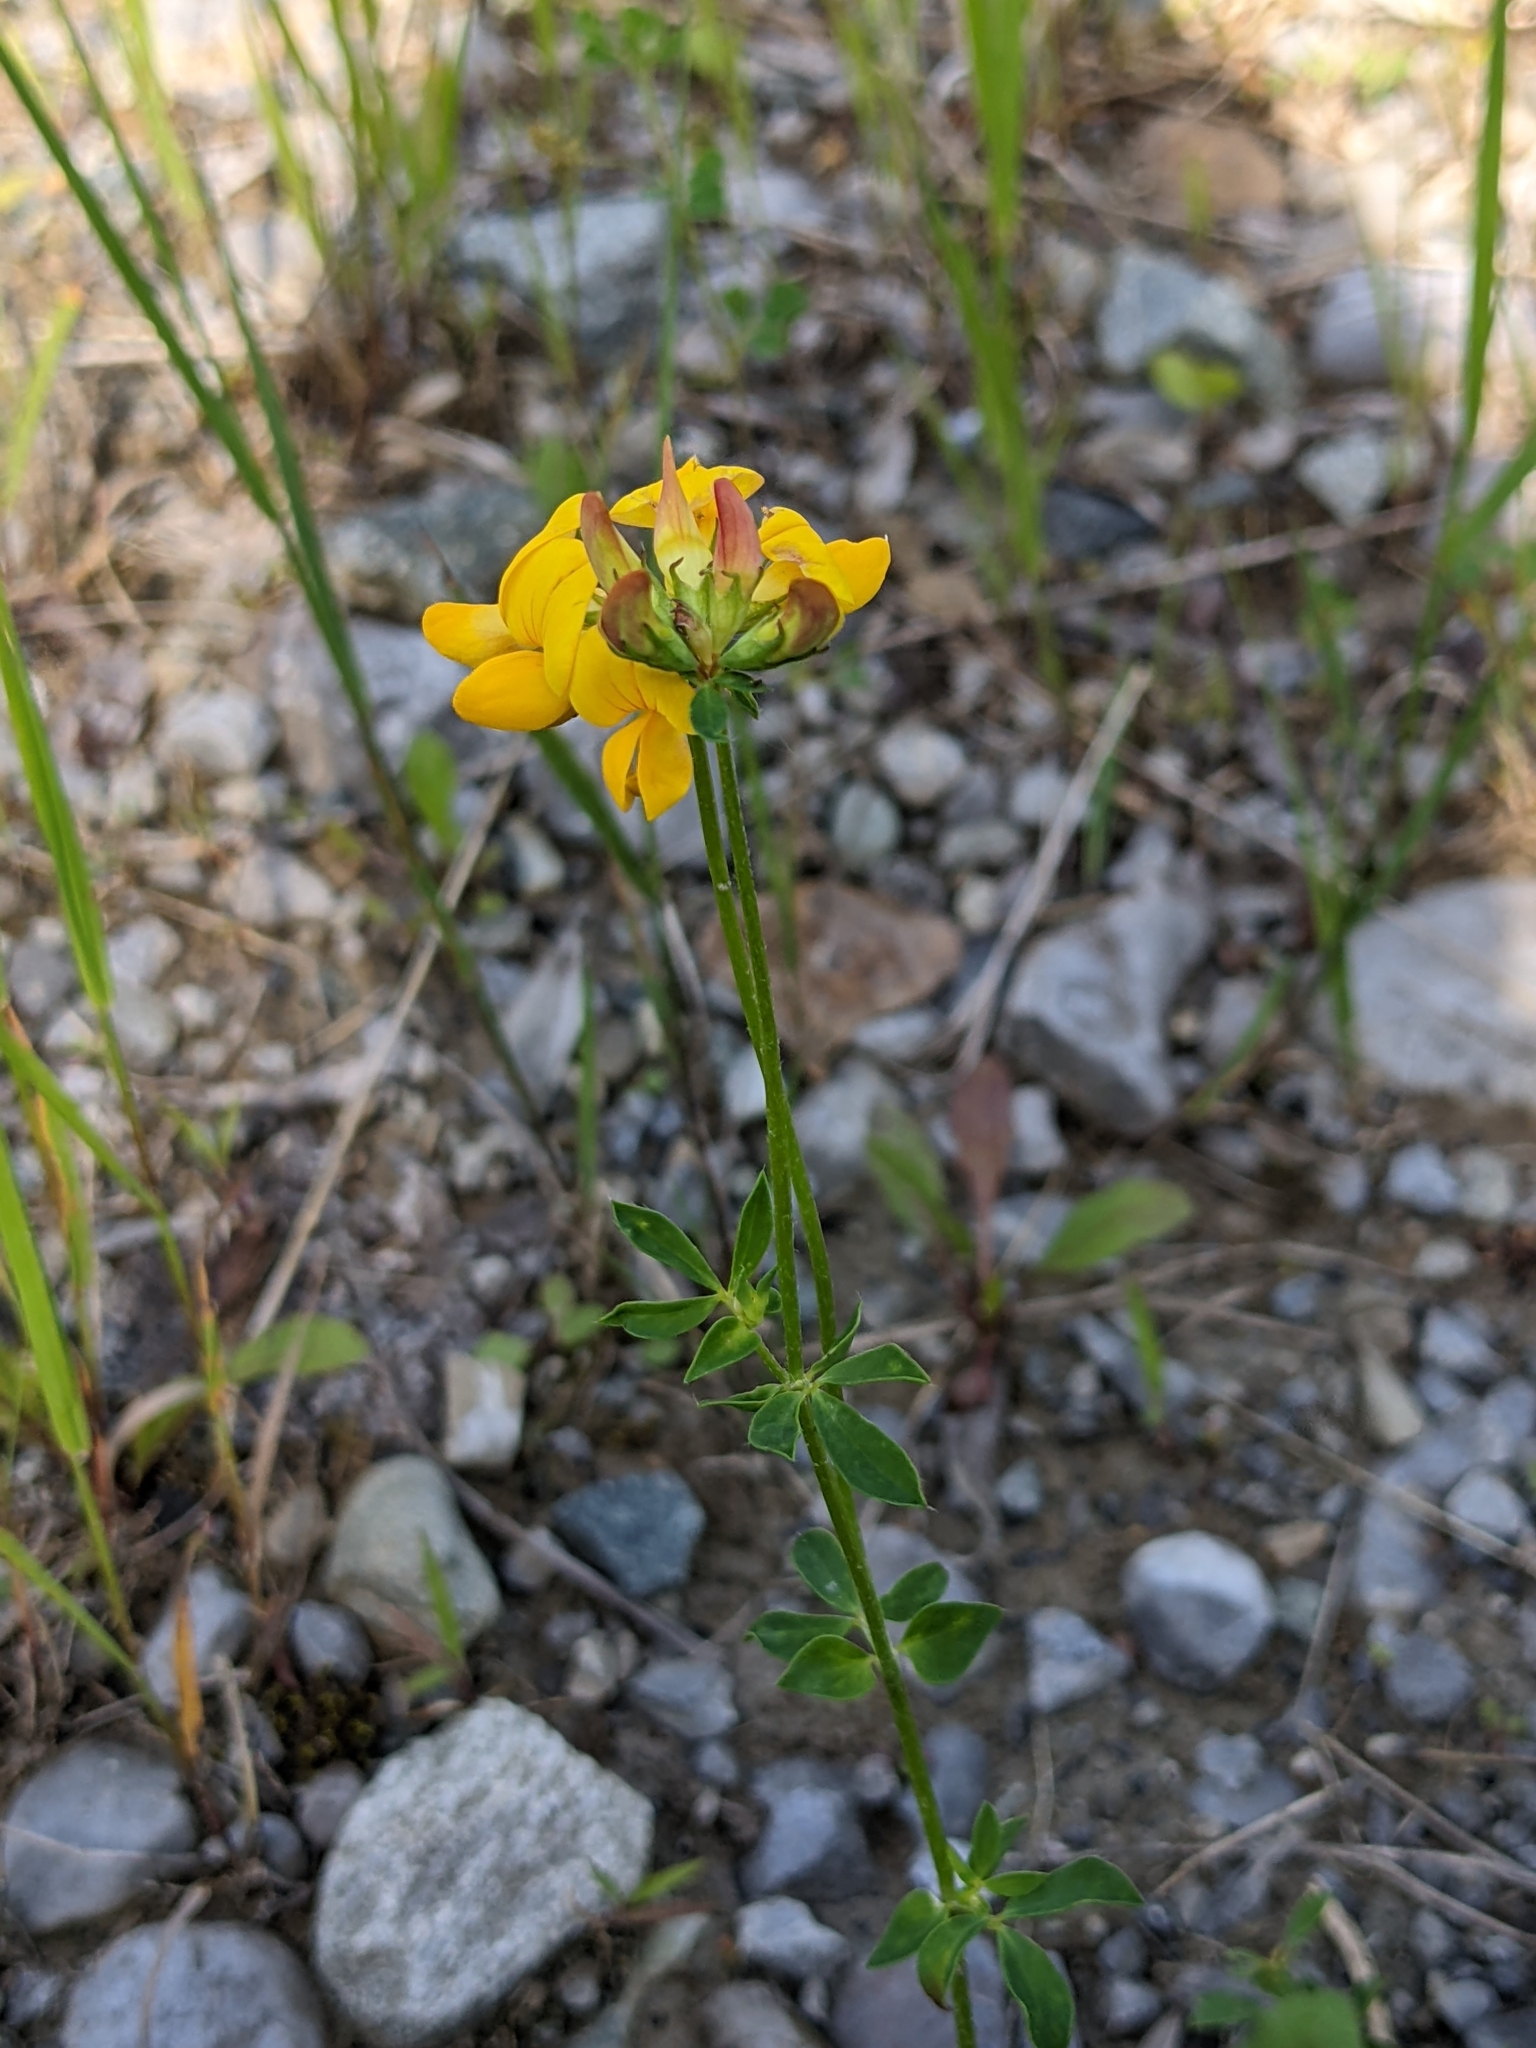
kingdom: Plantae
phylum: Tracheophyta
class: Magnoliopsida
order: Fabales
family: Fabaceae
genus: Lotus
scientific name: Lotus corniculatus
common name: Common bird's-foot-trefoil
